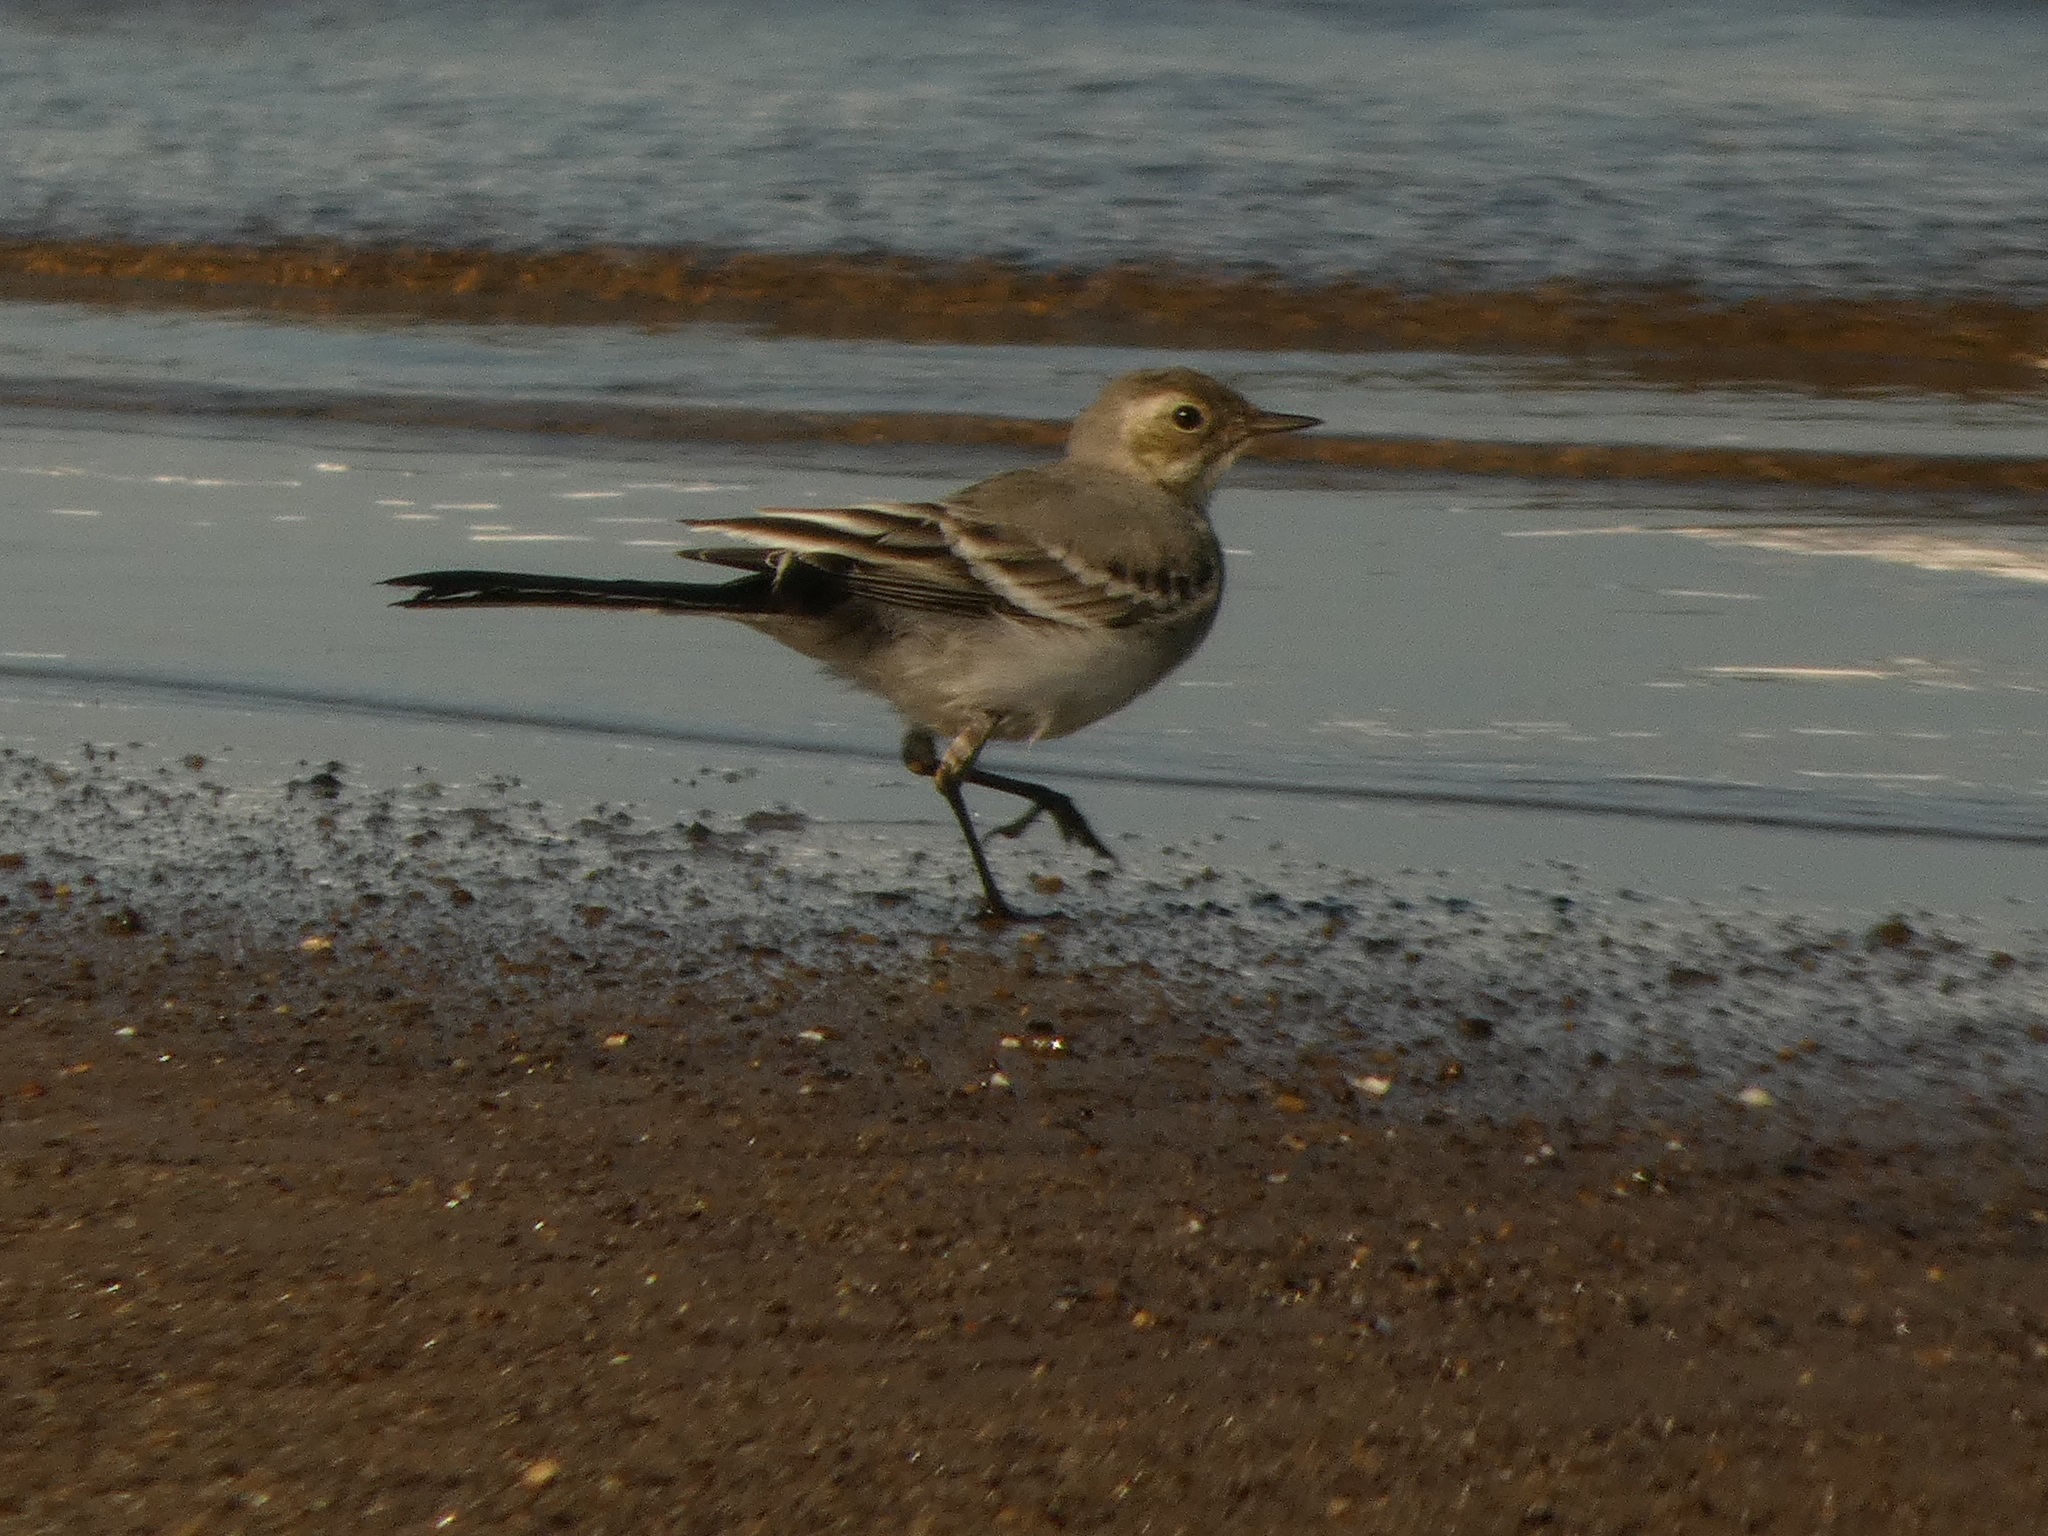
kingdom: Animalia
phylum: Chordata
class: Aves
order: Passeriformes
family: Motacillidae
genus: Motacilla
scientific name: Motacilla alba
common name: White wagtail
